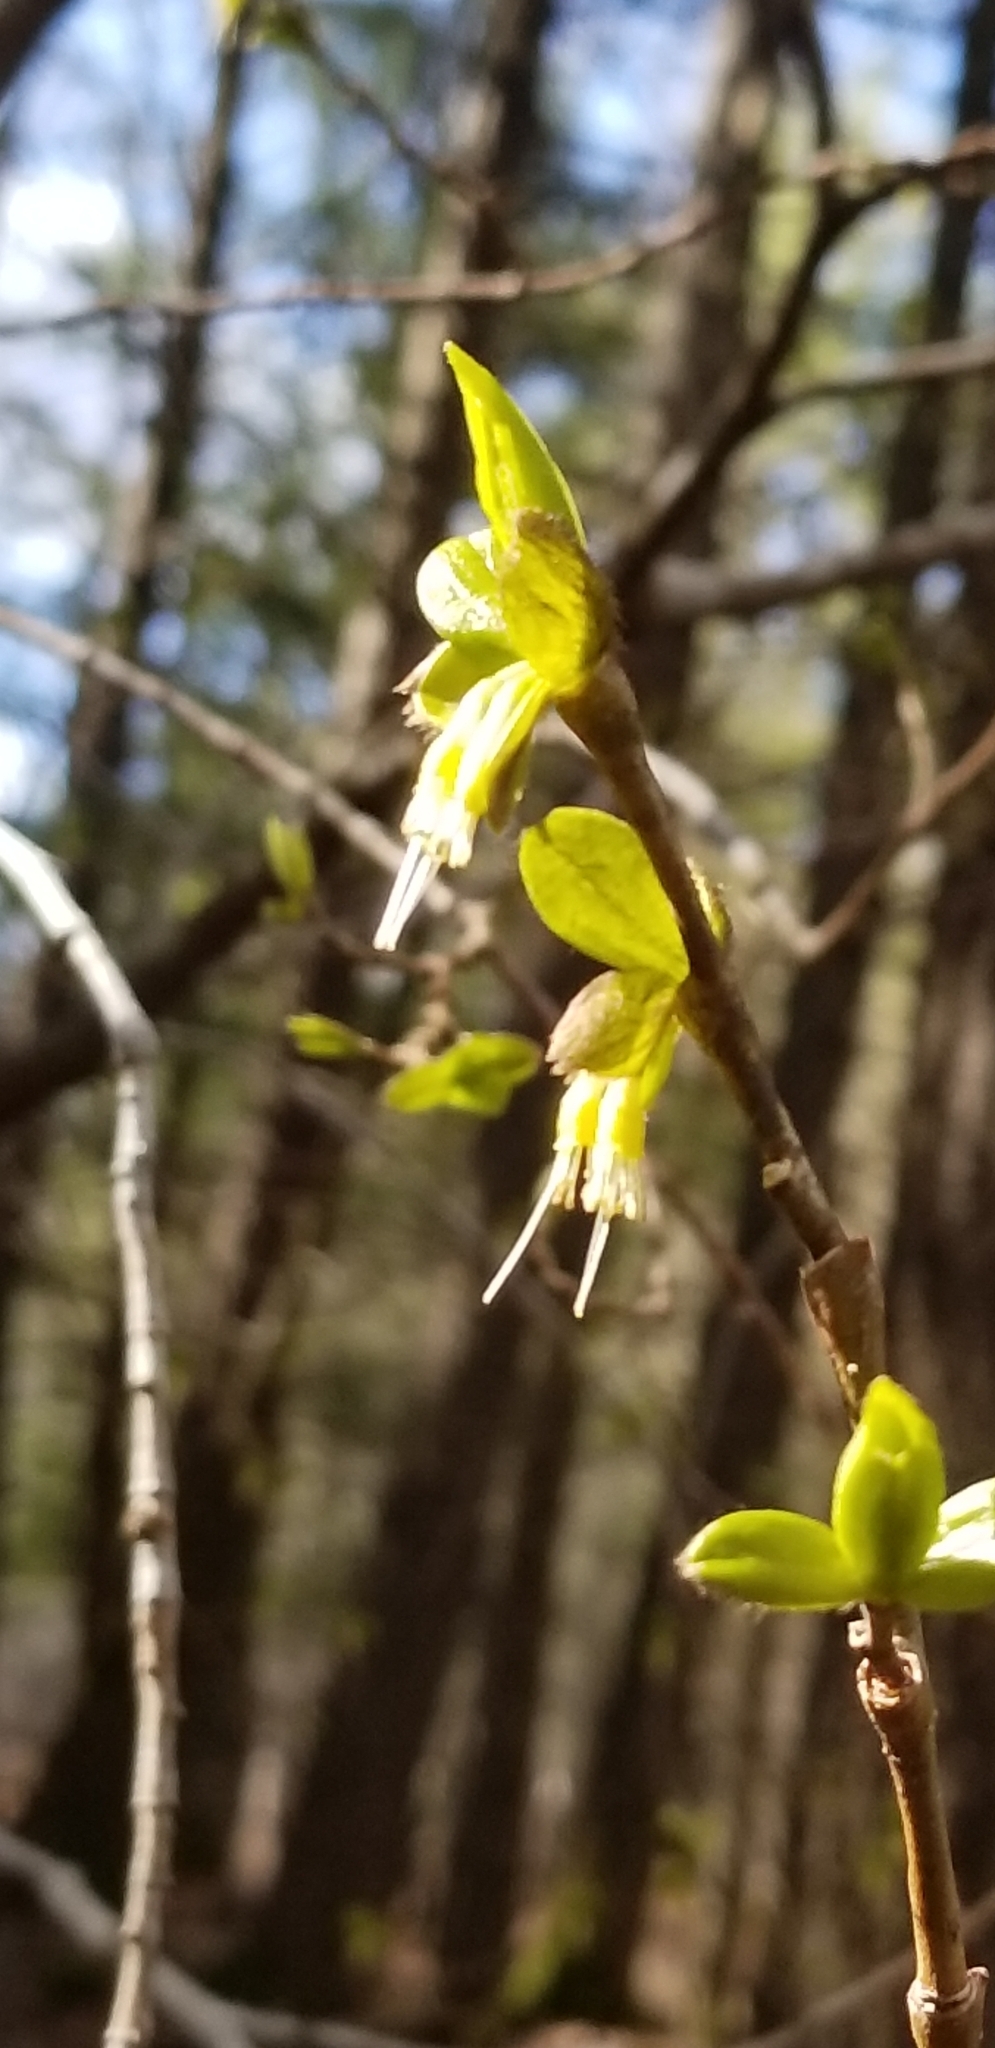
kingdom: Plantae
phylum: Tracheophyta
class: Magnoliopsida
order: Malvales
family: Thymelaeaceae
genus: Dirca
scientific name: Dirca palustris
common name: Leatherwood
